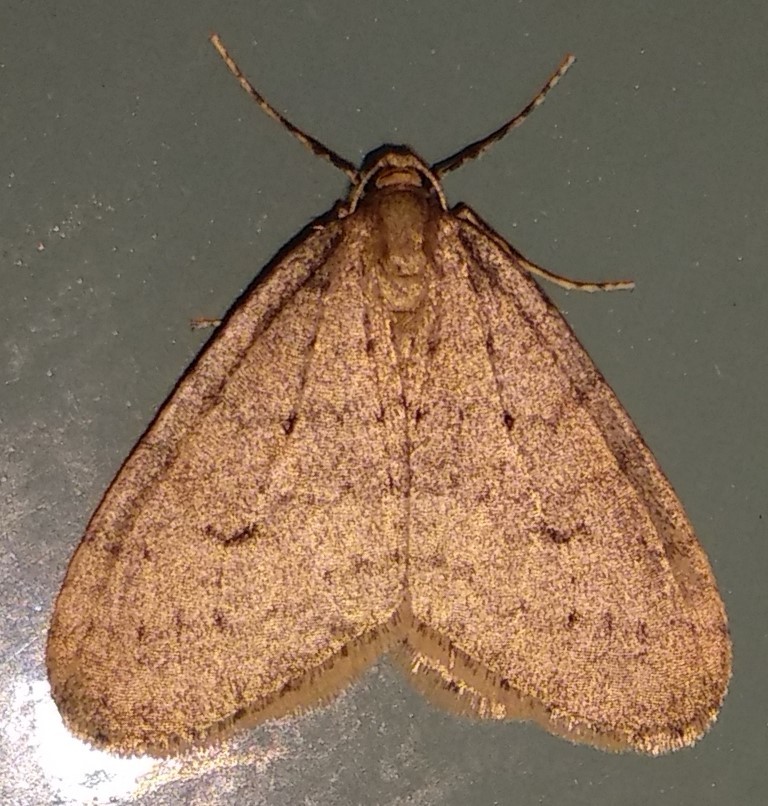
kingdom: Animalia
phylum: Arthropoda
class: Insecta
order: Lepidoptera
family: Geometridae
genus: Operophtera
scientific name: Operophtera brumata
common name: Winter moth
